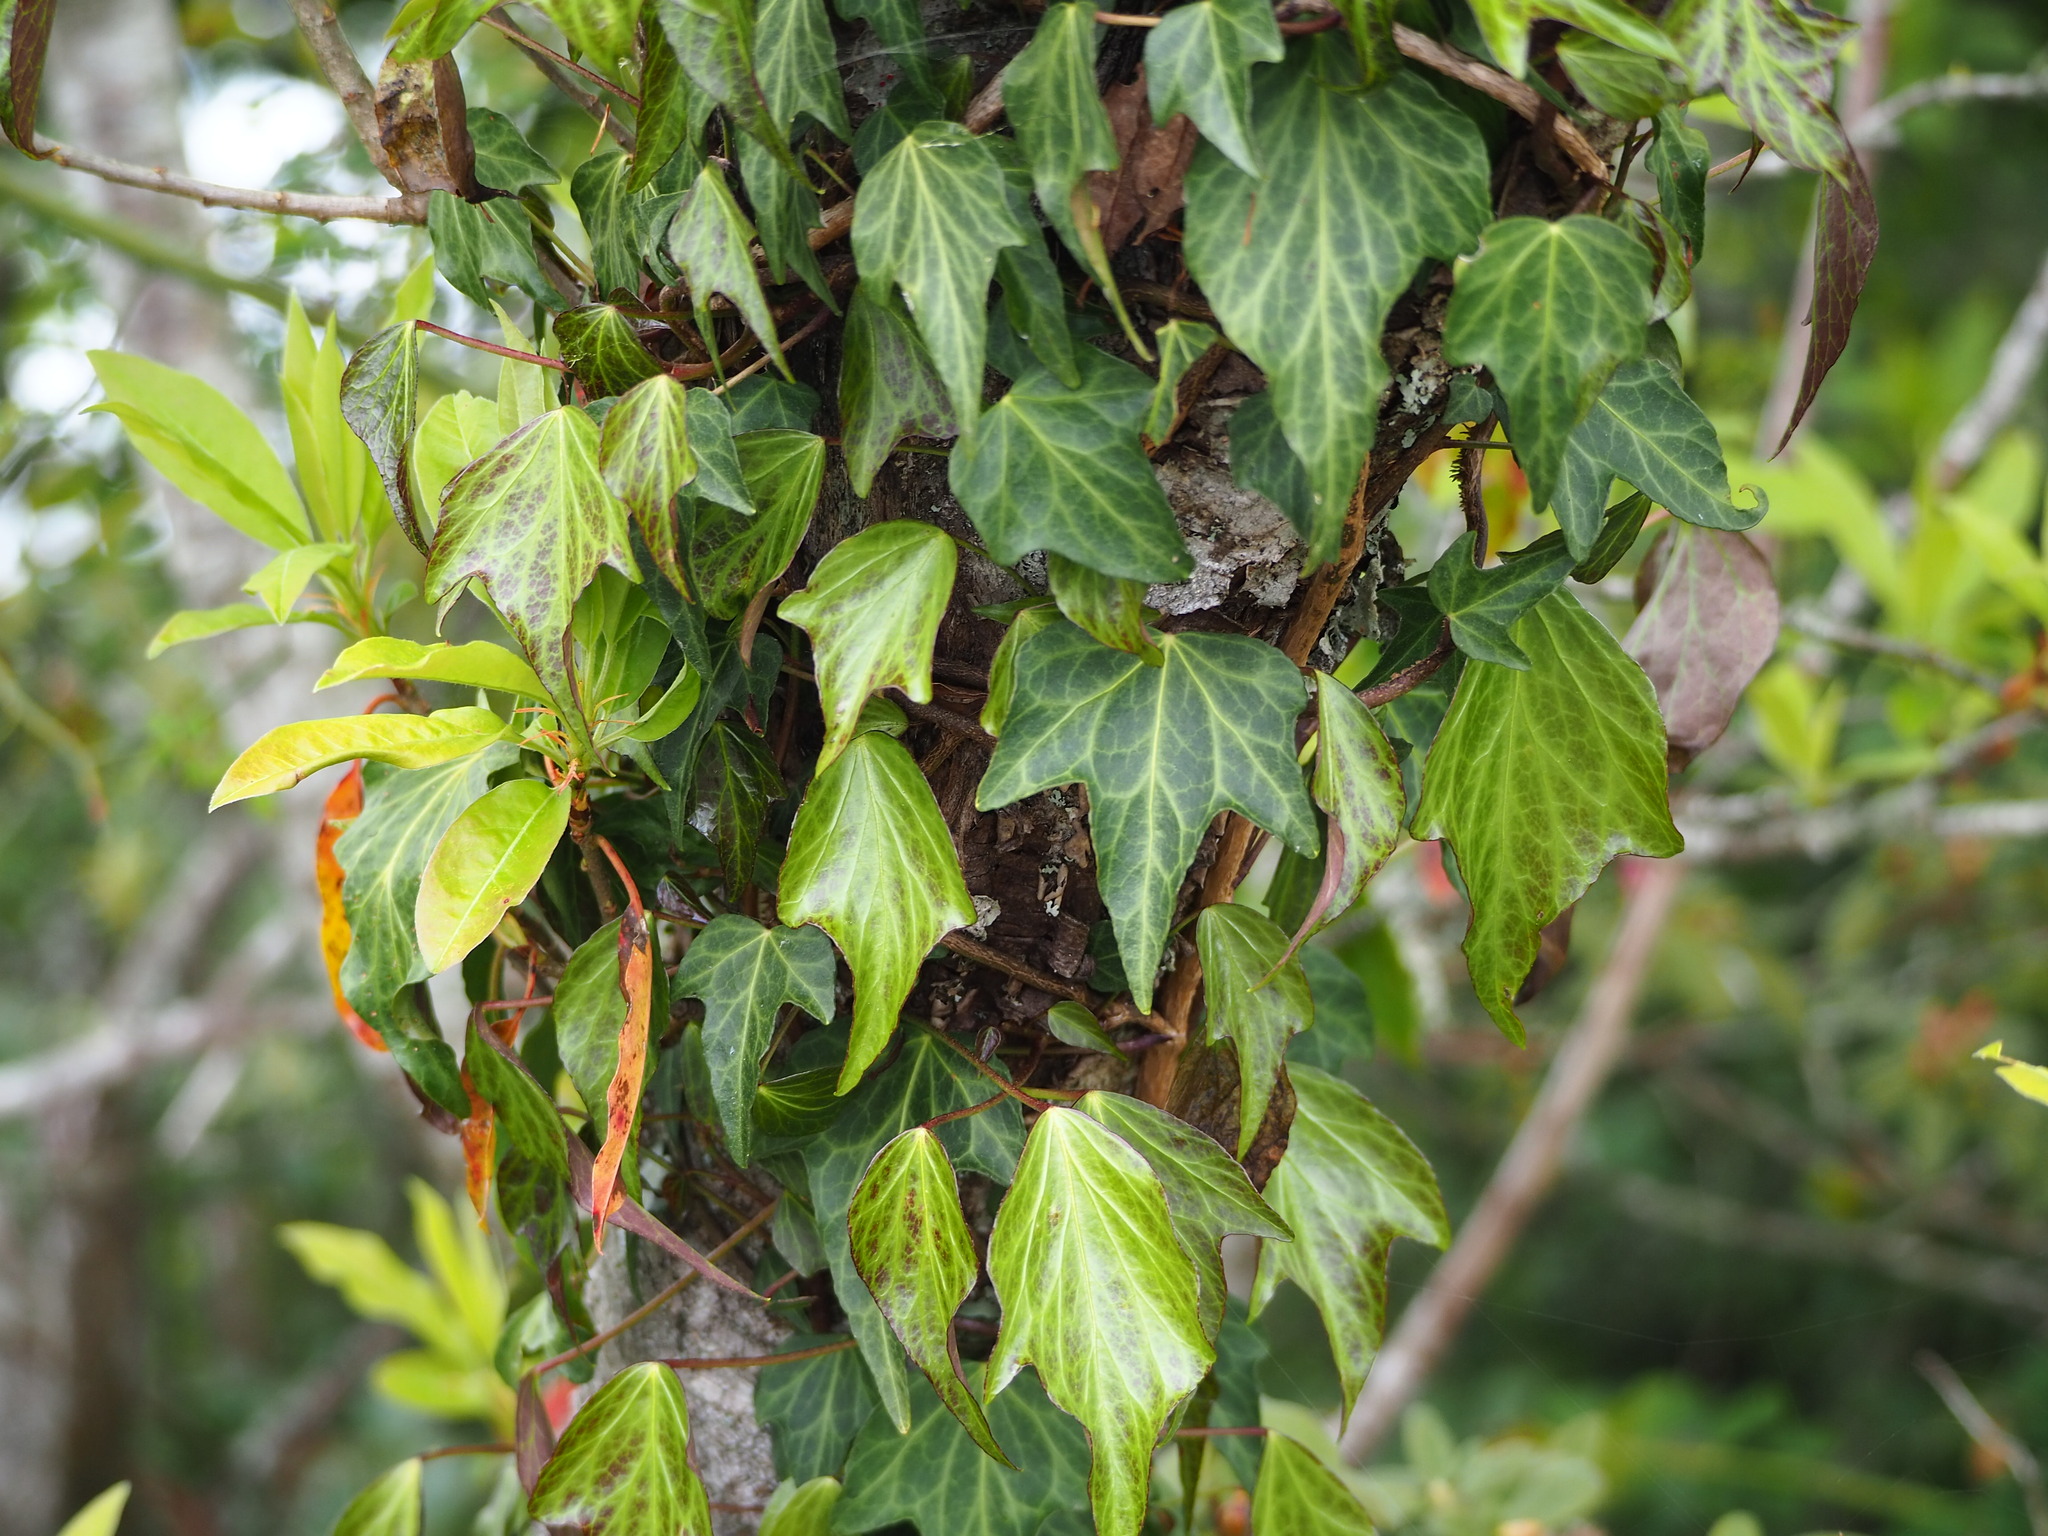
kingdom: Plantae
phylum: Tracheophyta
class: Magnoliopsida
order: Apiales
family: Araliaceae
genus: Hedera
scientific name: Hedera rhombea
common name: Japanese ivy
